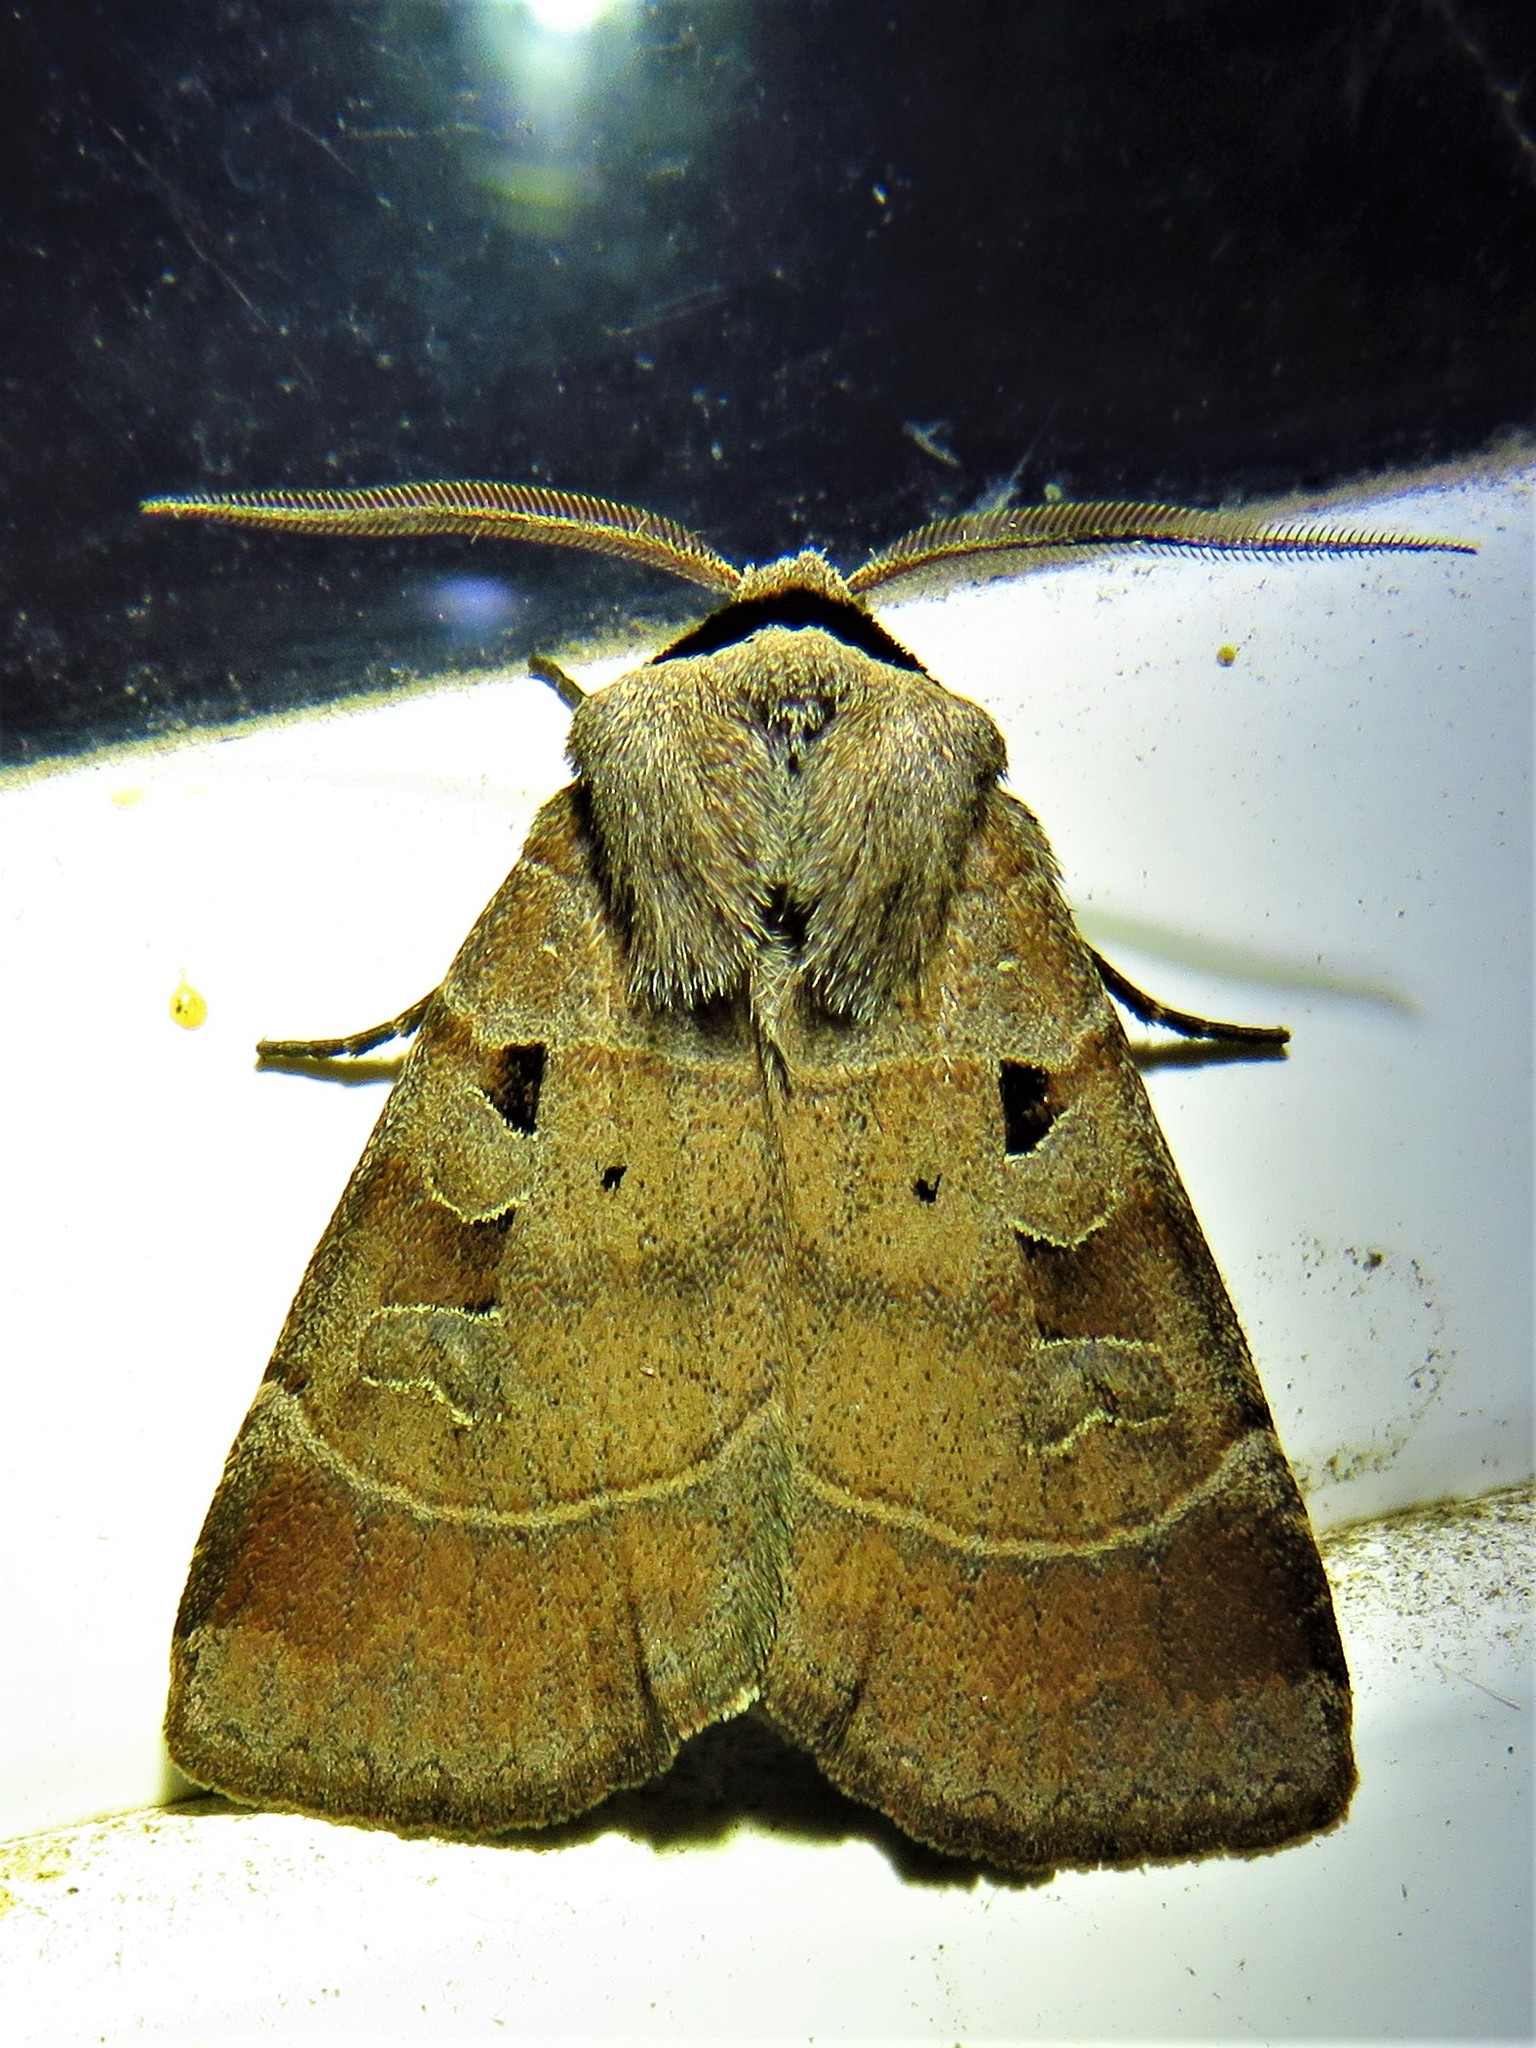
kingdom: Animalia
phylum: Arthropoda
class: Insecta
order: Lepidoptera
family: Noctuidae
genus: Agnorisma
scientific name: Agnorisma badinodis
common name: Pale-banded dart
